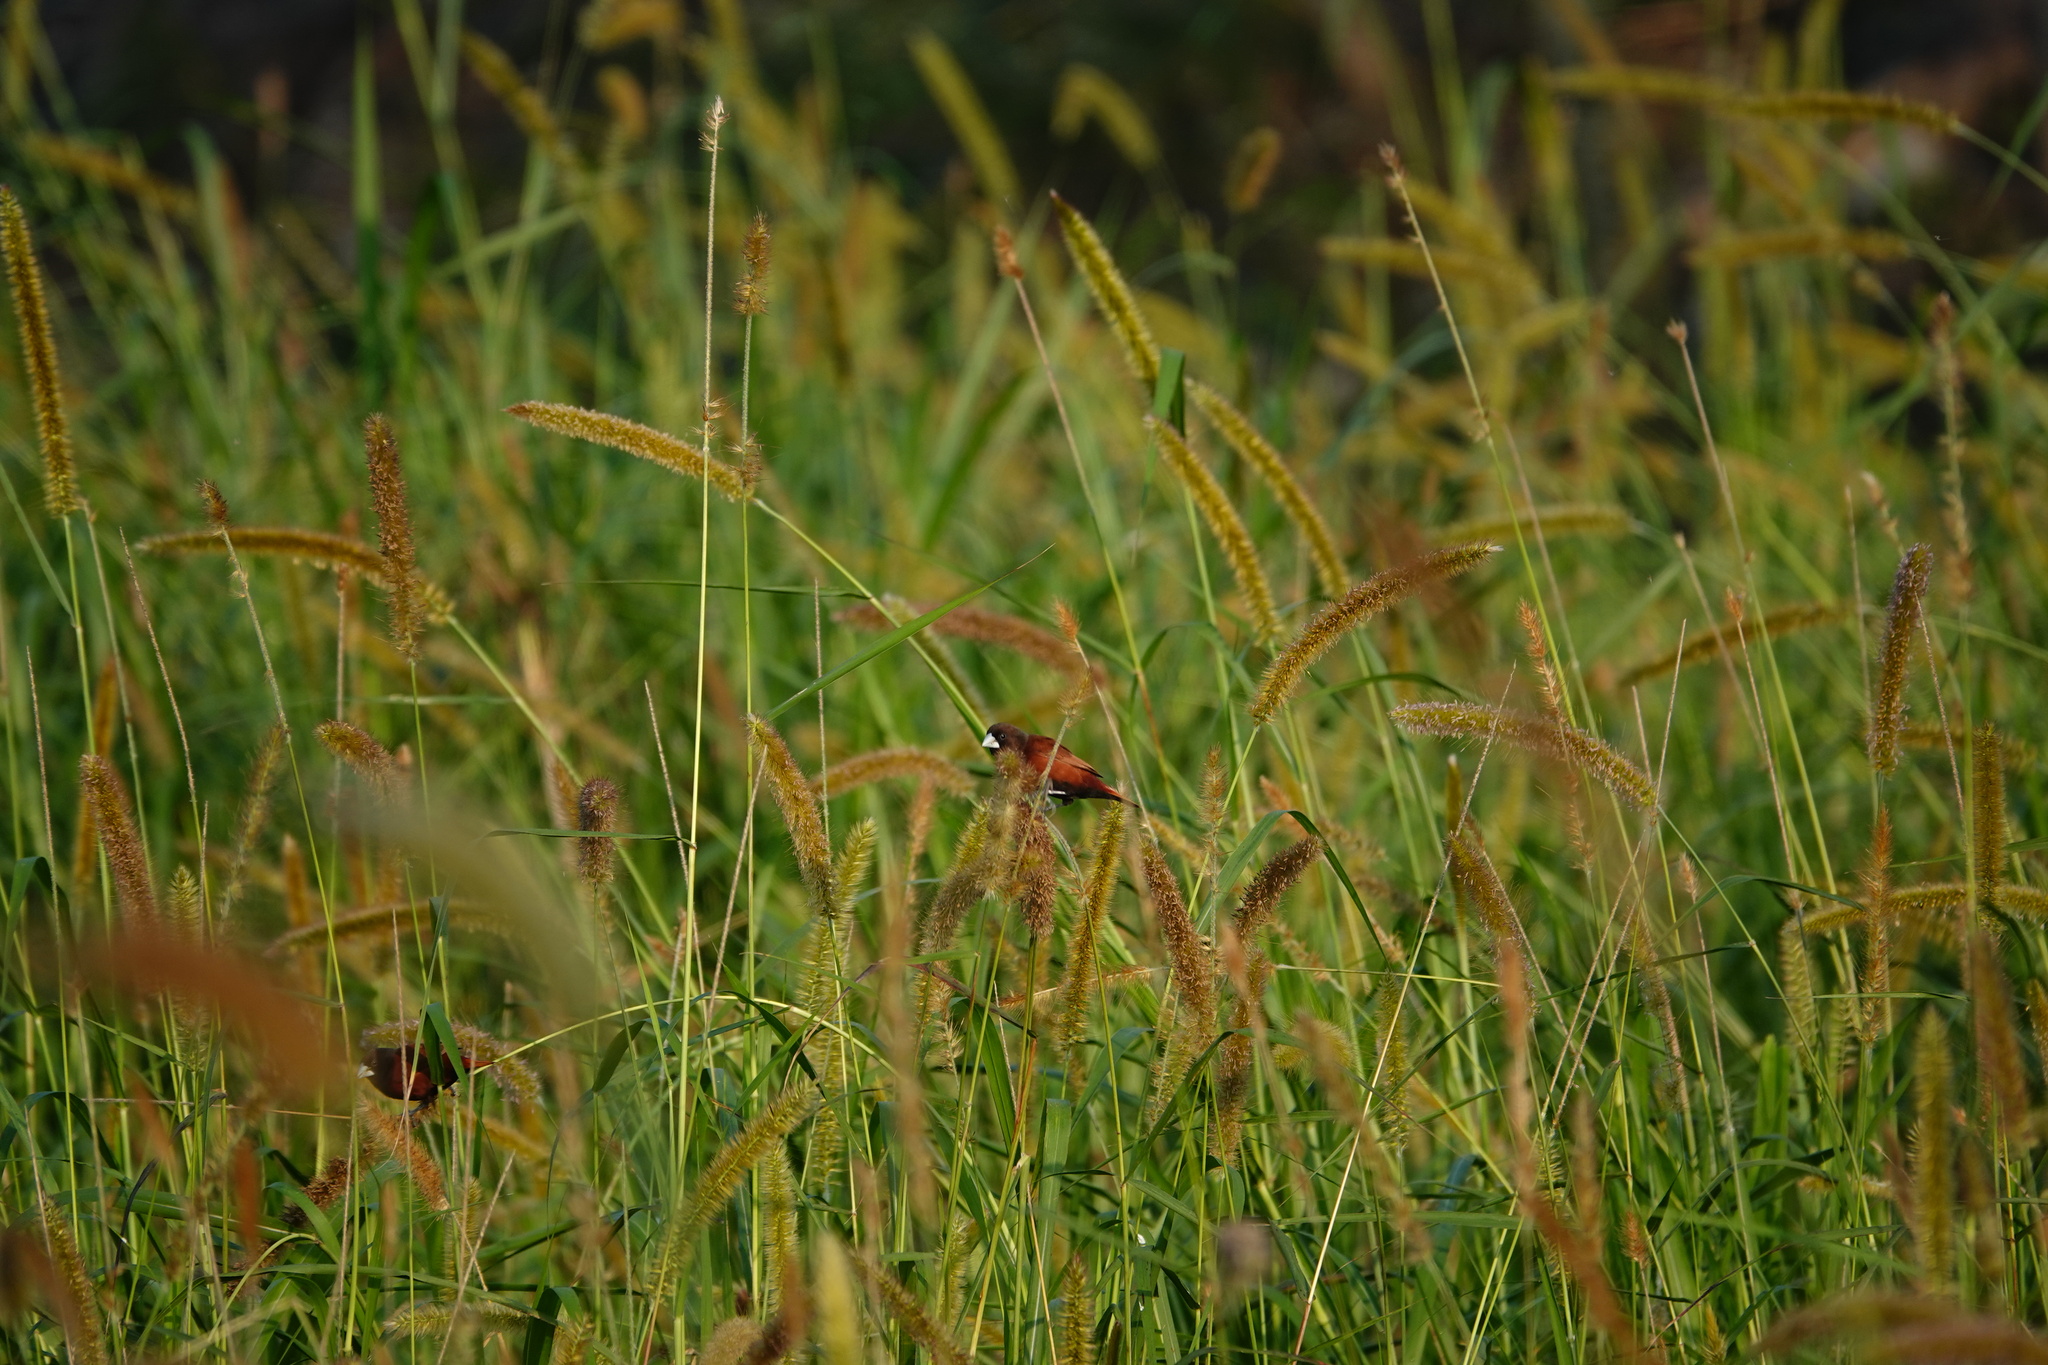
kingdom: Animalia
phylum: Chordata
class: Aves
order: Passeriformes
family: Estrildidae
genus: Lonchura
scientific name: Lonchura atricapilla
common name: Chestnut munia
